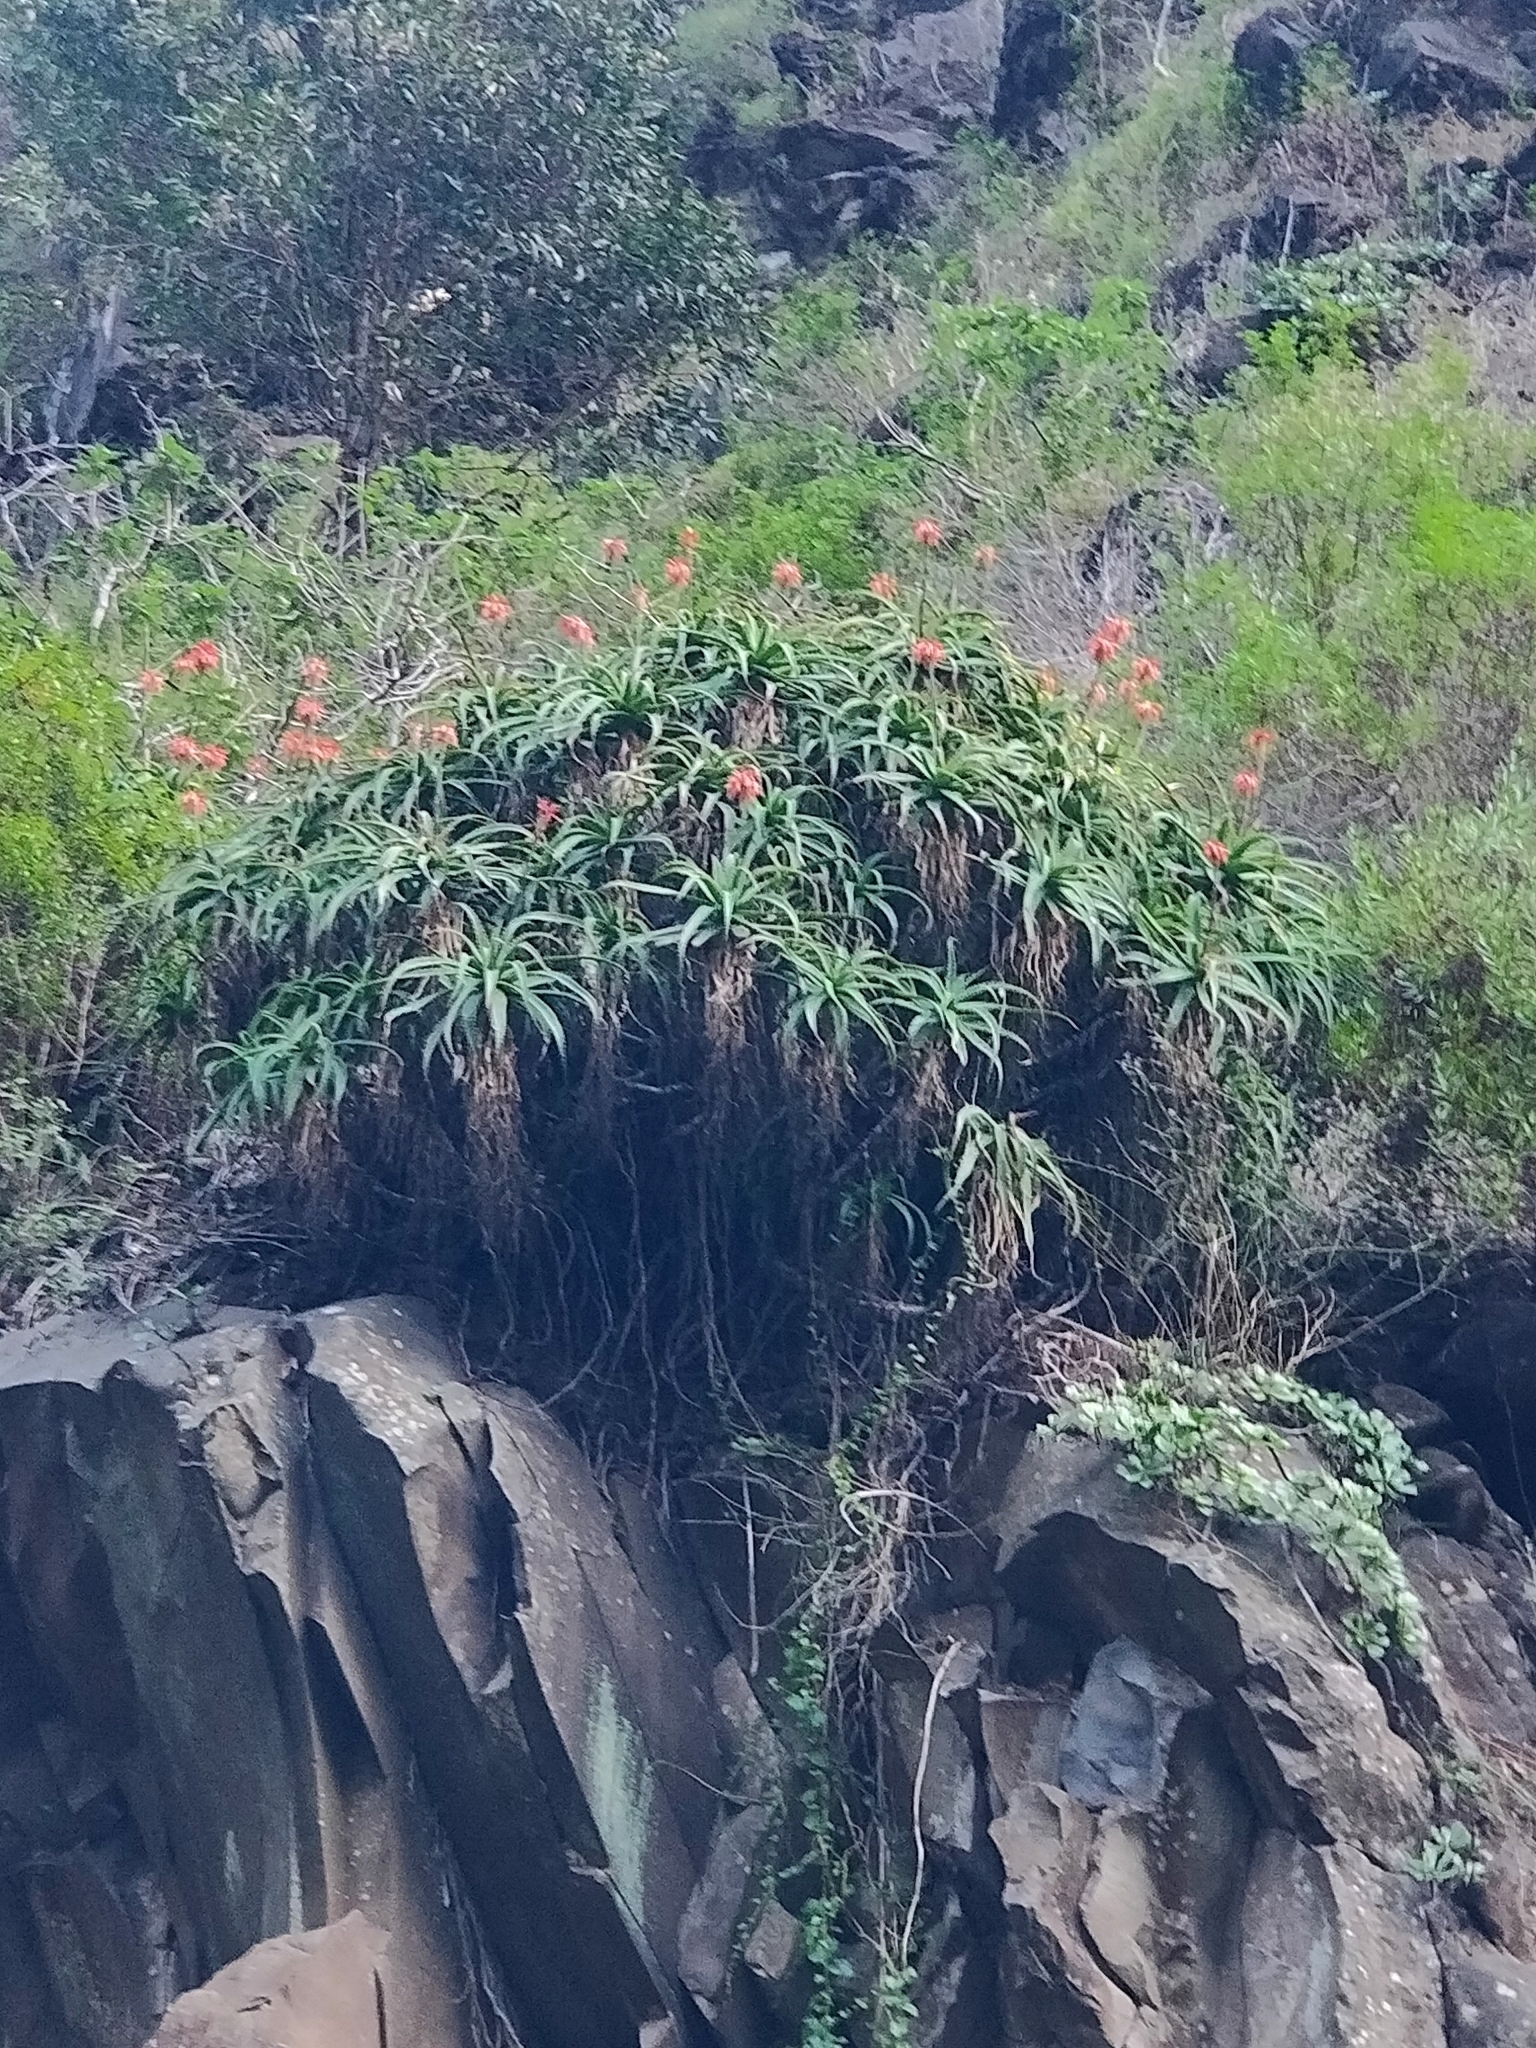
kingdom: Plantae
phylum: Tracheophyta
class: Liliopsida
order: Asparagales
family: Asphodelaceae
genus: Aloe
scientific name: Aloe arborescens
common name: Candelabra aloe
